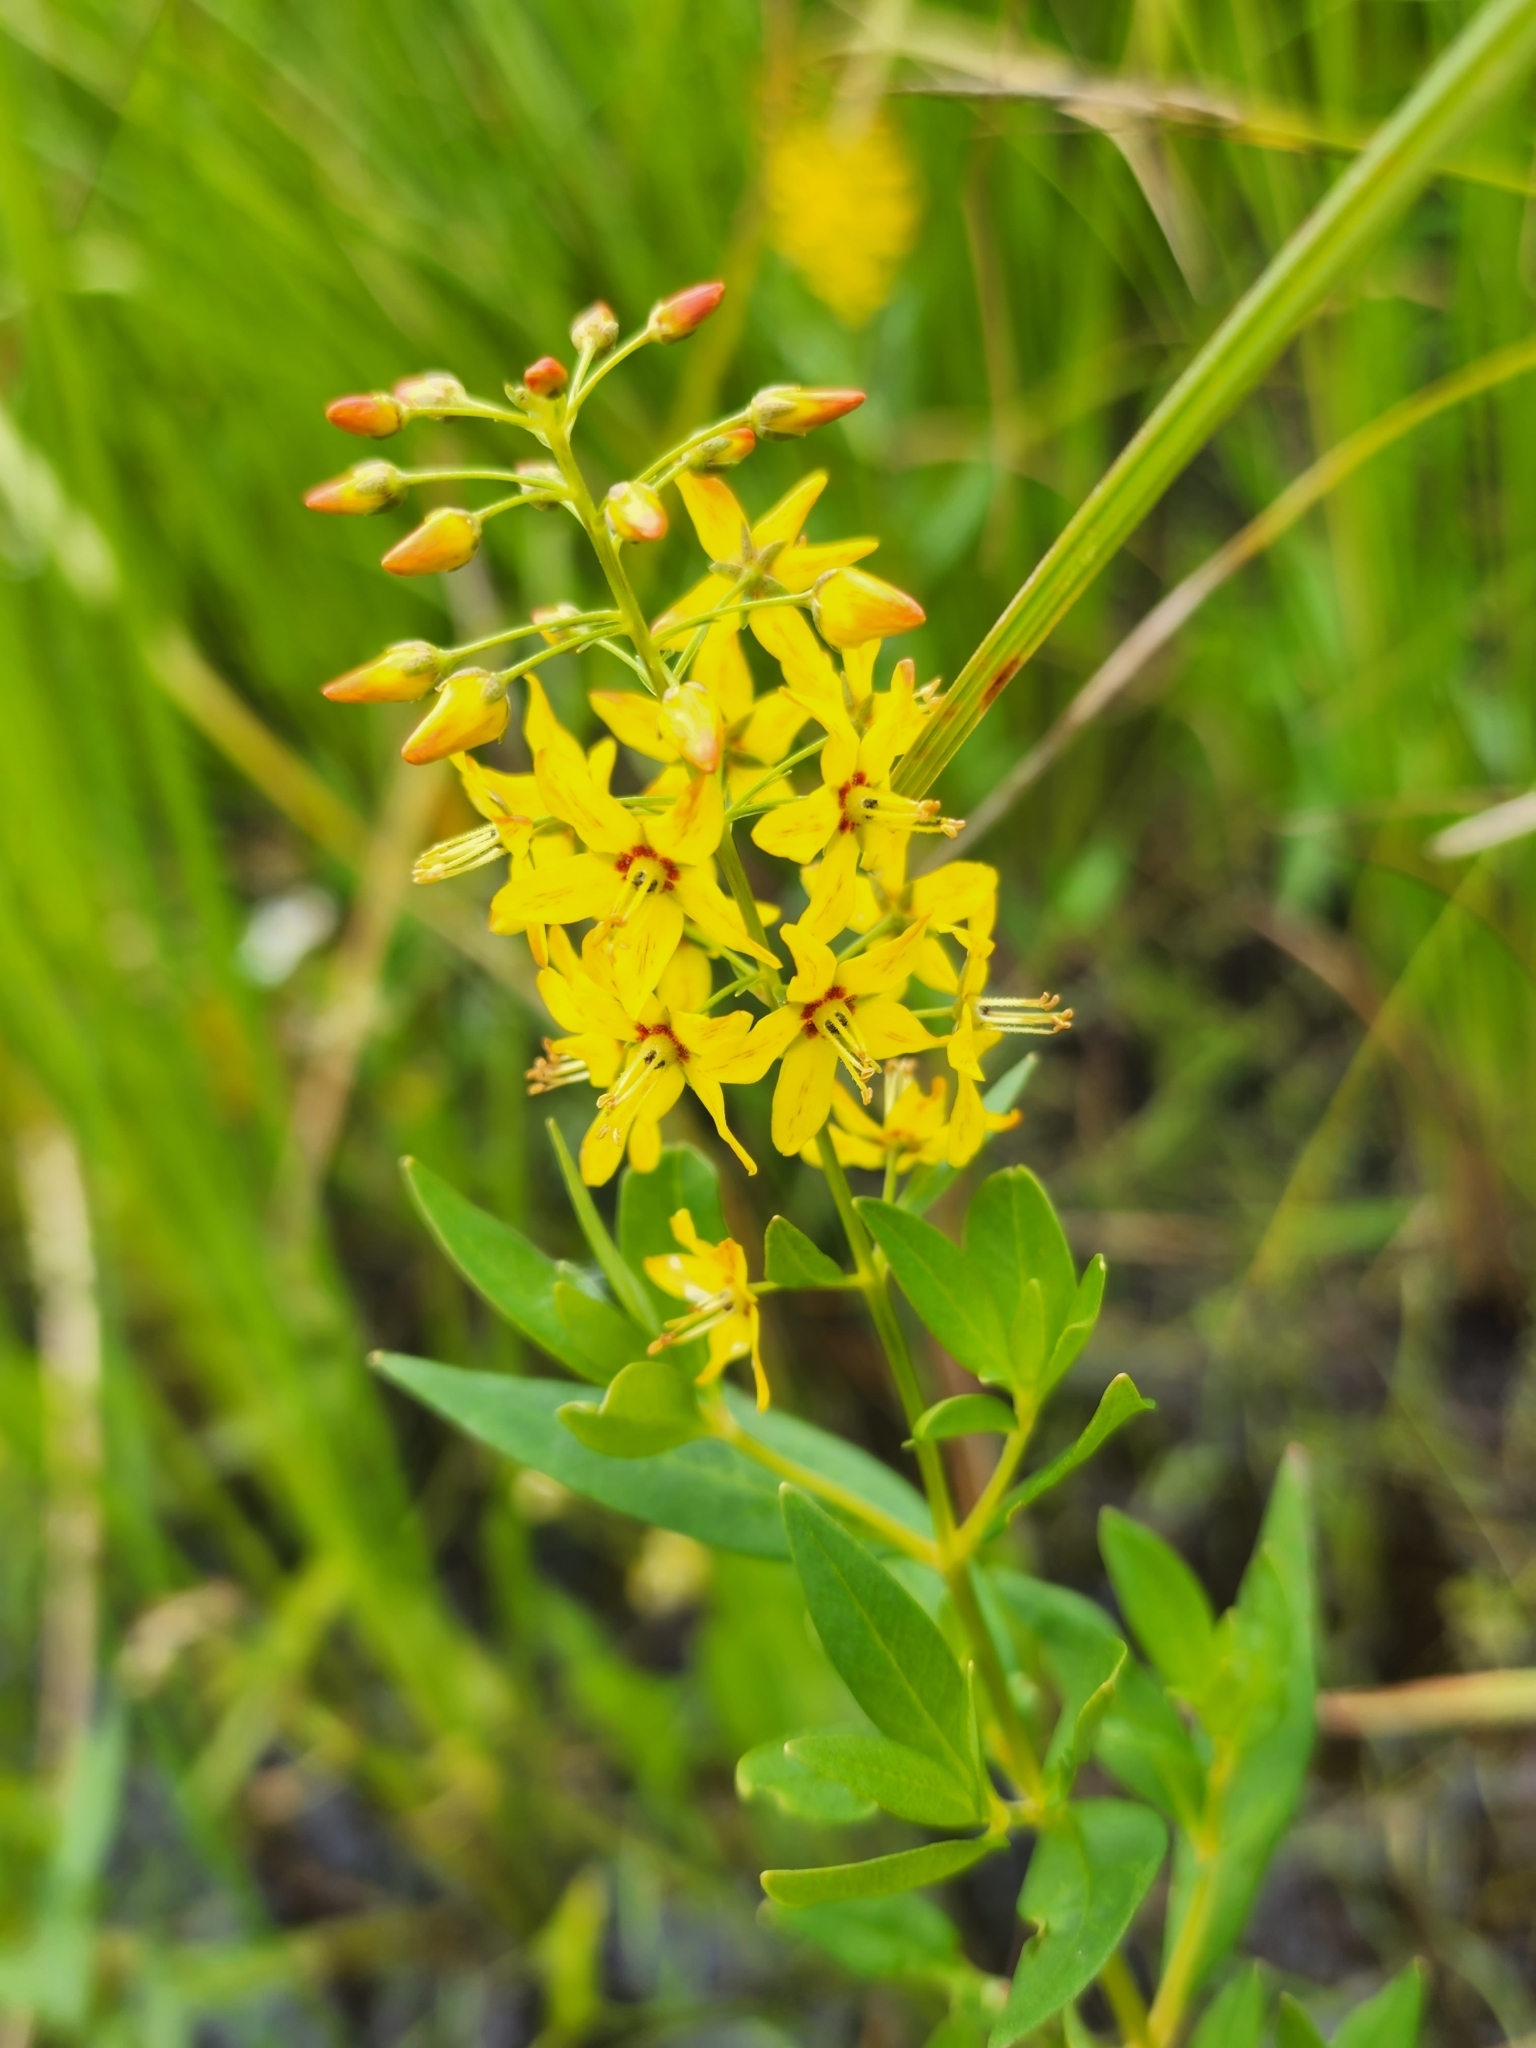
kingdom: Plantae
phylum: Tracheophyta
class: Magnoliopsida
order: Ericales
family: Primulaceae
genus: Lysimachia
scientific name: Lysimachia terrestris
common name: Lake loosestrife
